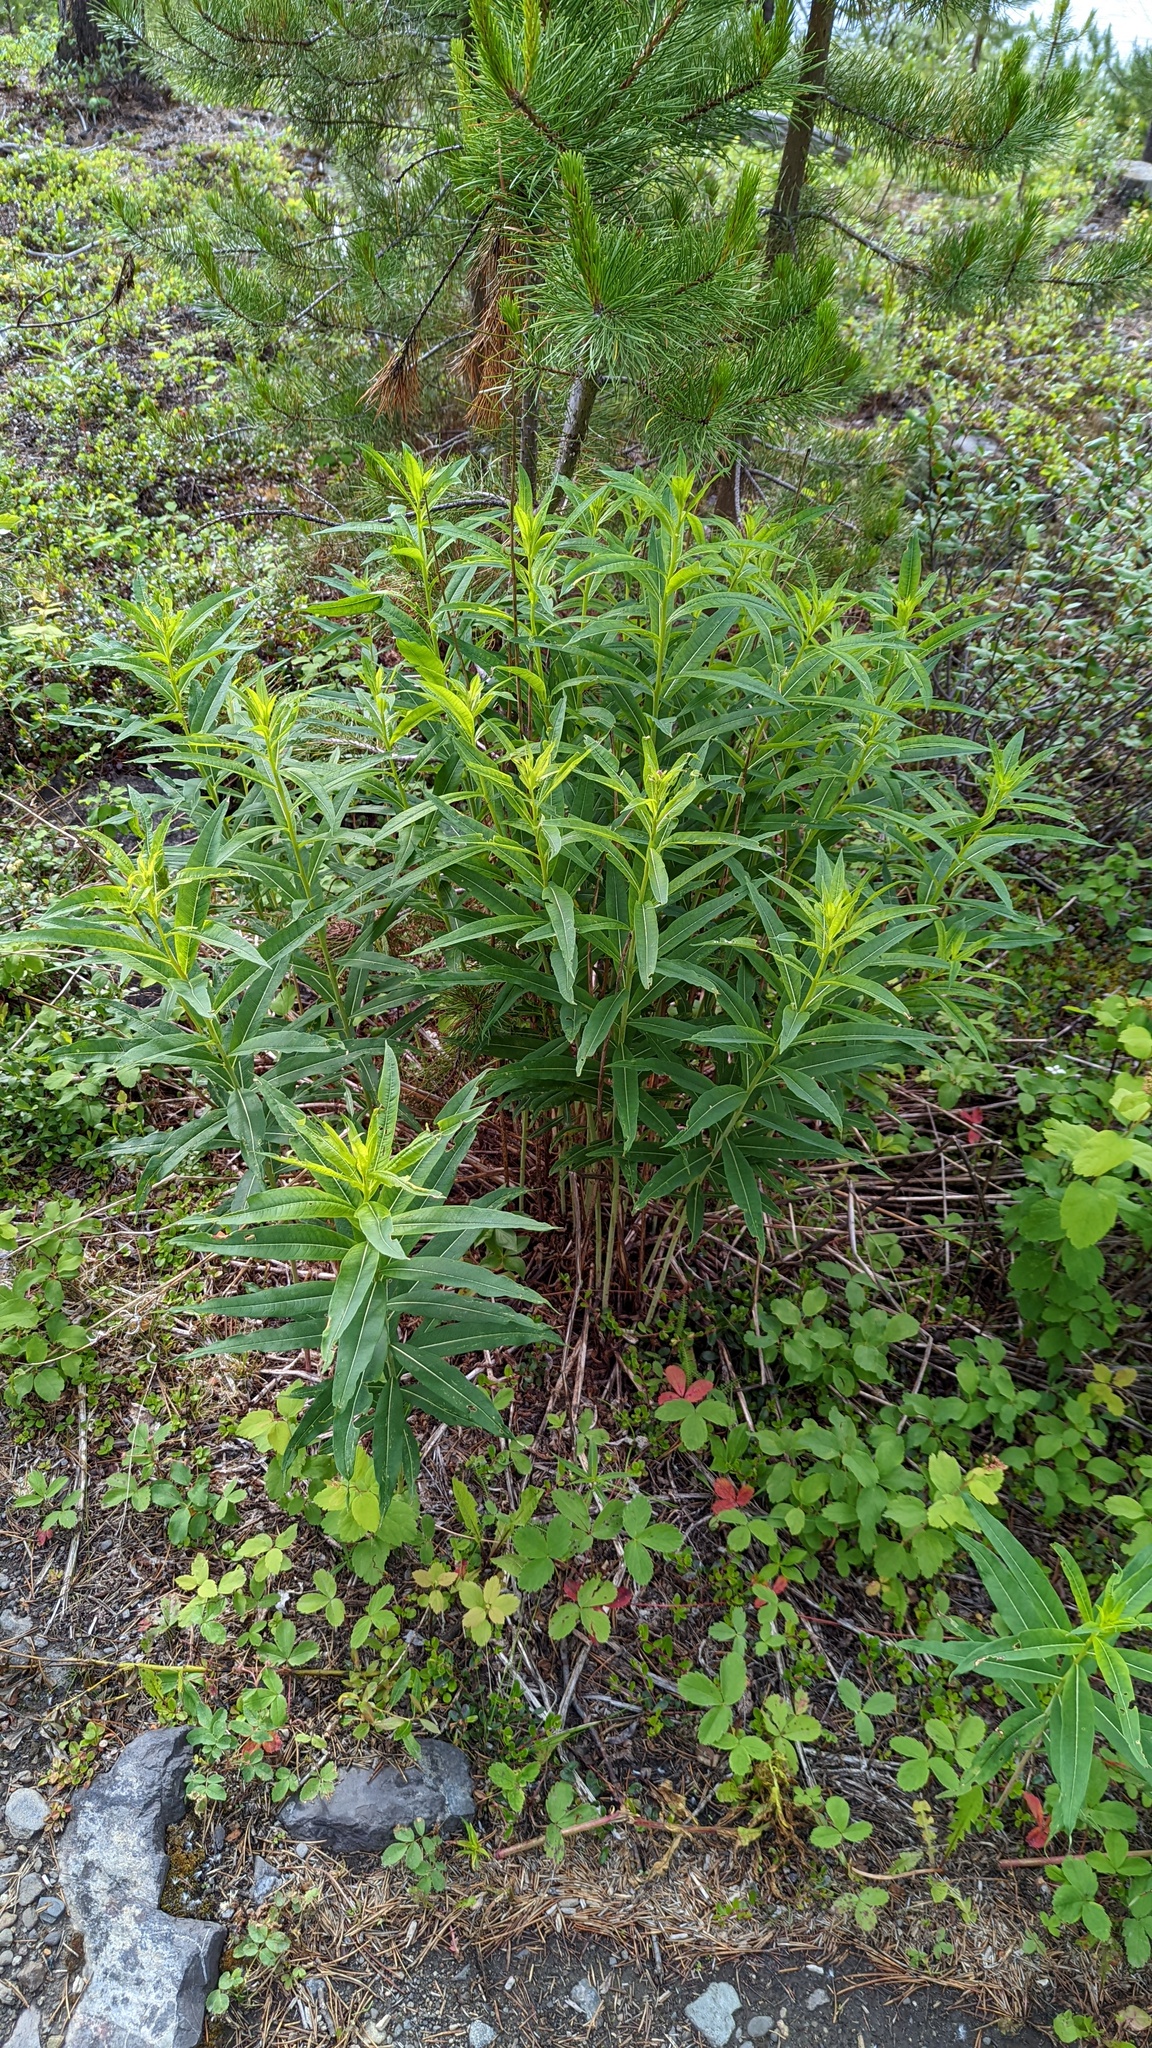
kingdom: Plantae
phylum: Tracheophyta
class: Magnoliopsida
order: Myrtales
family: Onagraceae
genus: Chamaenerion
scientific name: Chamaenerion angustifolium
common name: Fireweed
